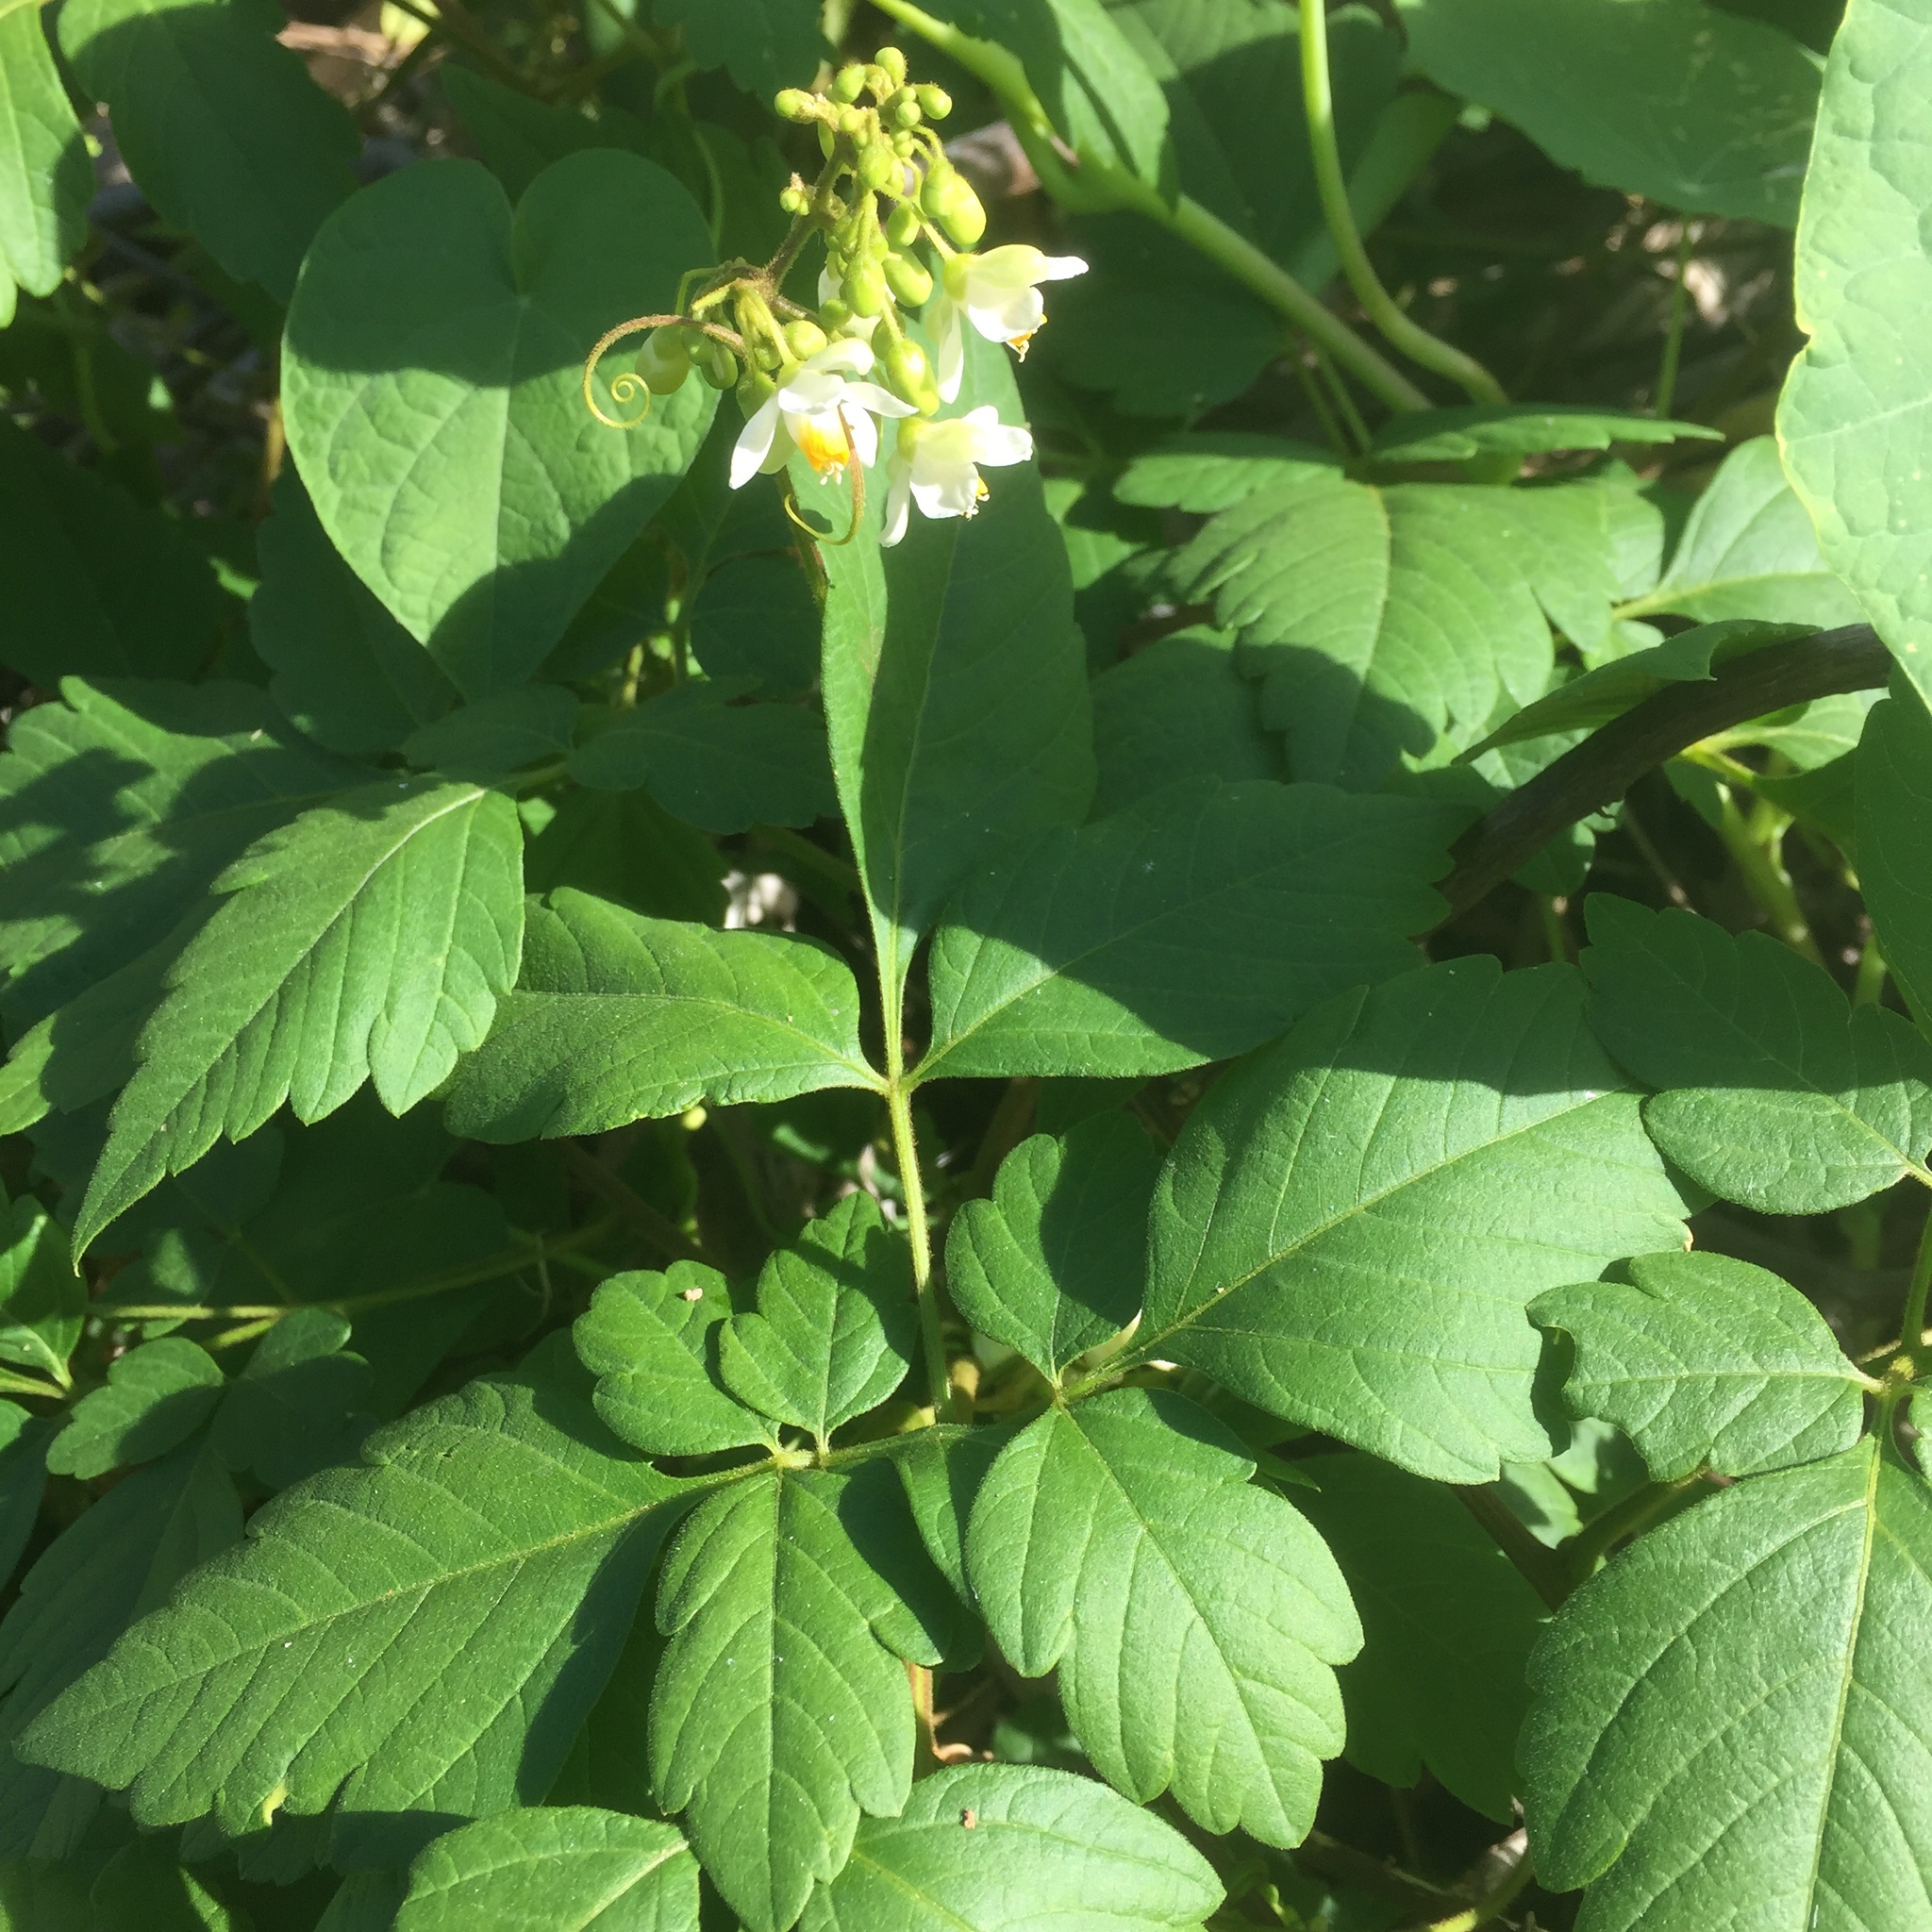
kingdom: Plantae
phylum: Tracheophyta
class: Magnoliopsida
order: Sapindales
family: Sapindaceae
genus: Cardiospermum
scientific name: Cardiospermum grandiflorum
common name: Balloon vine
